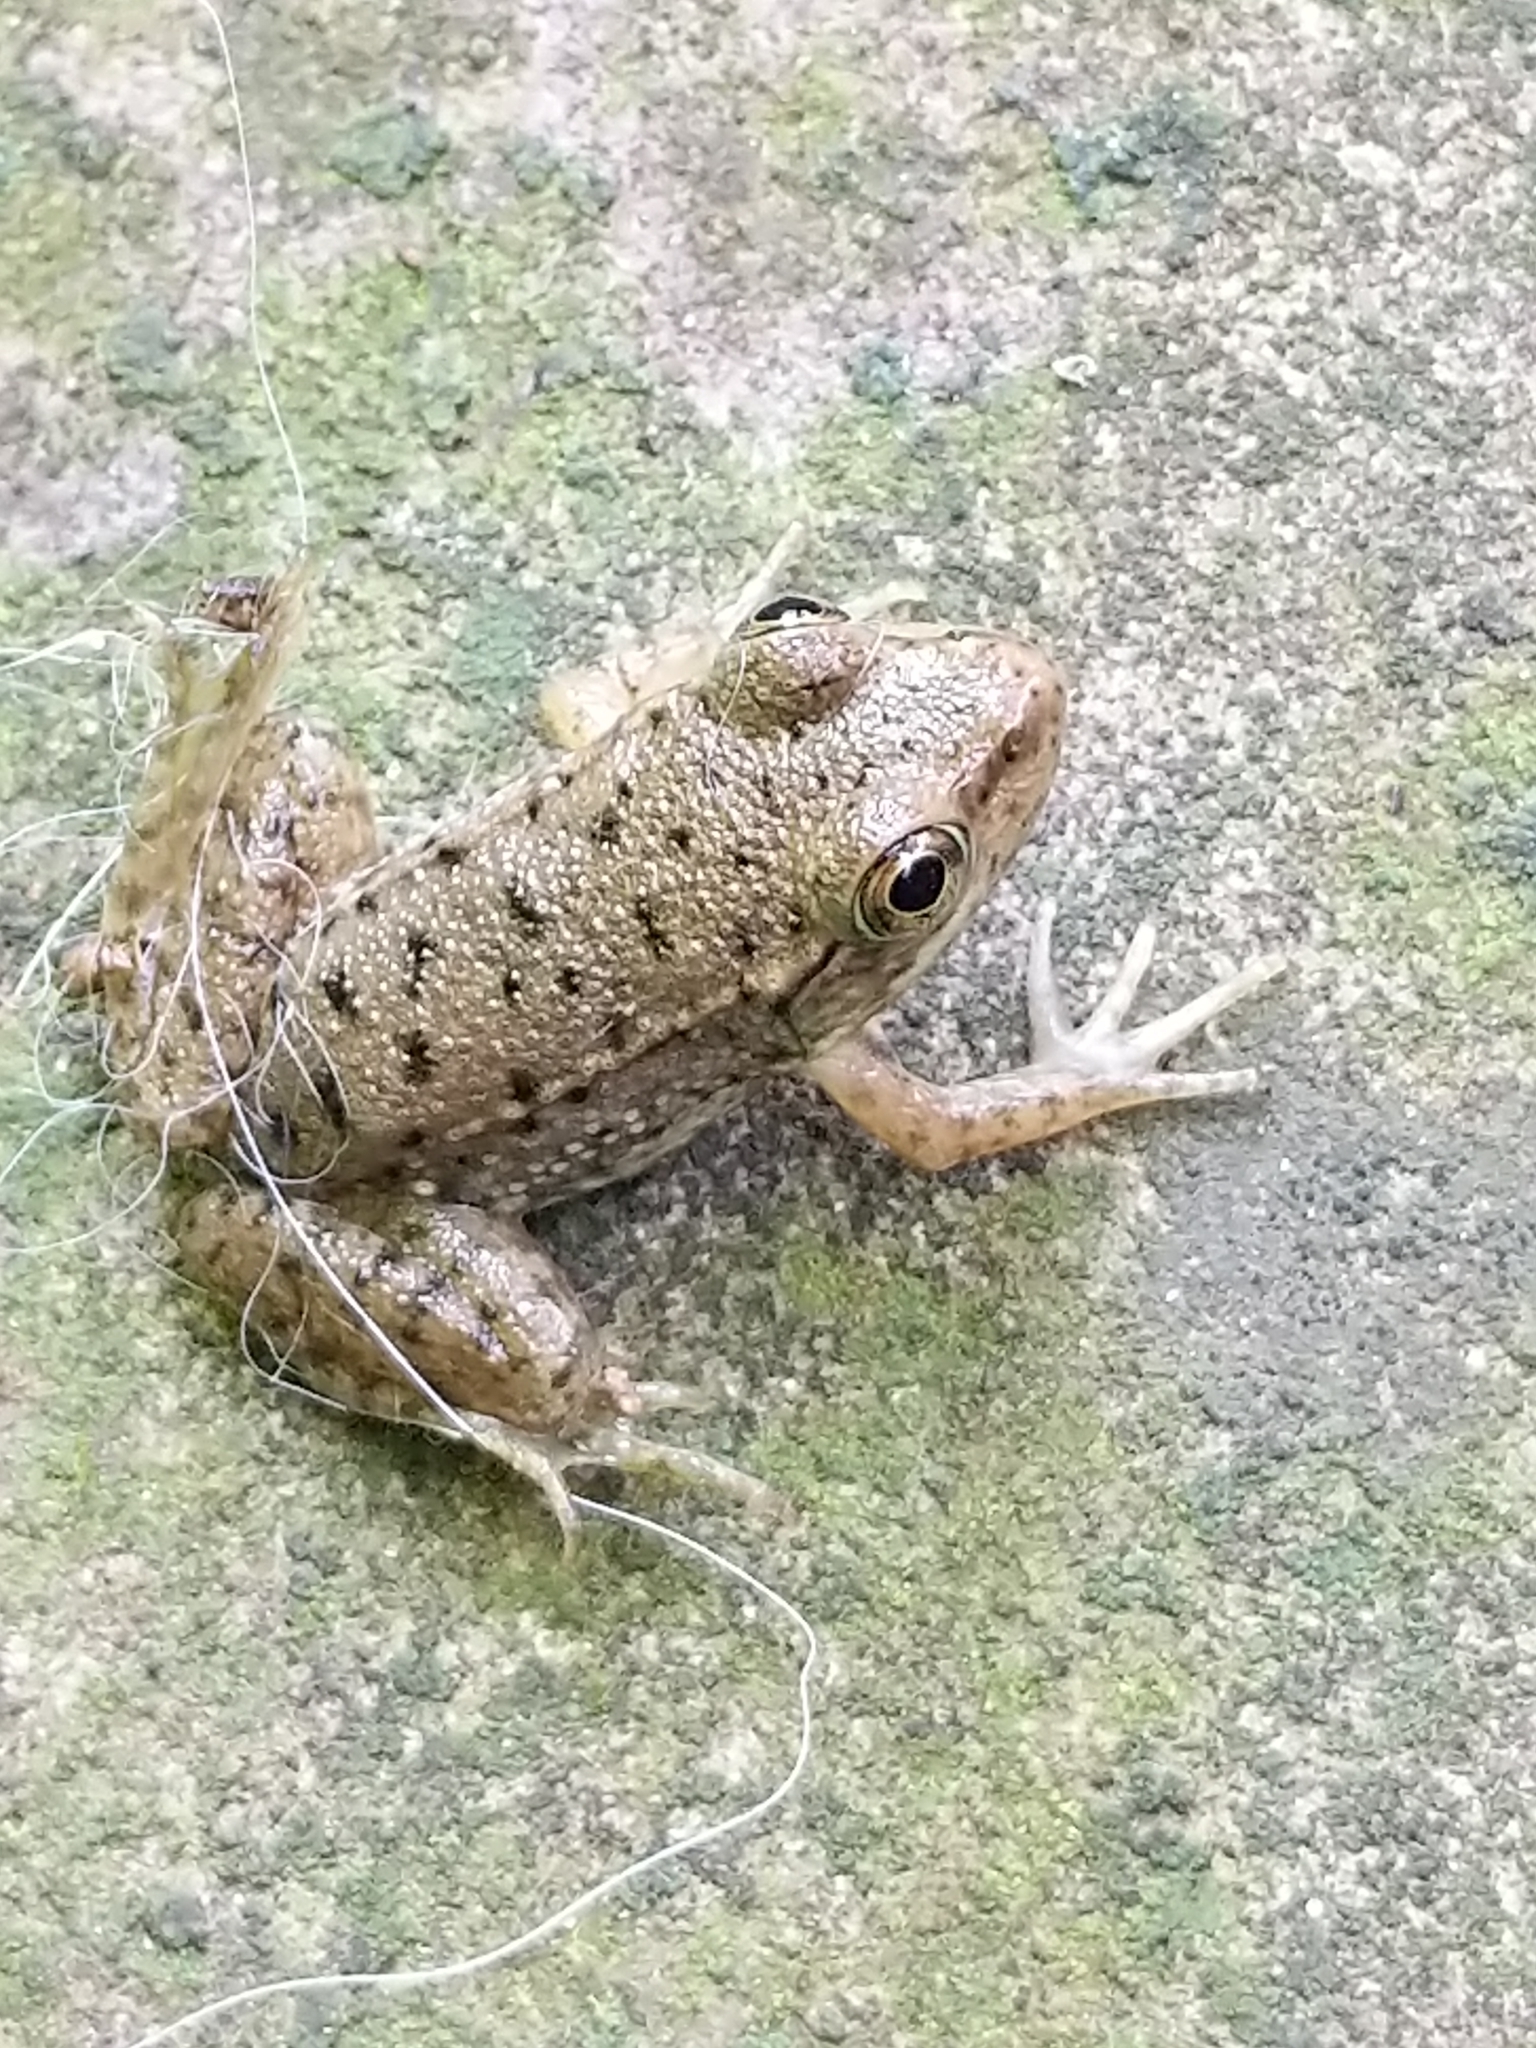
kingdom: Animalia
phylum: Chordata
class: Amphibia
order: Anura
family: Ranidae
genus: Lithobates
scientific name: Lithobates clamitans
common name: Green frog
